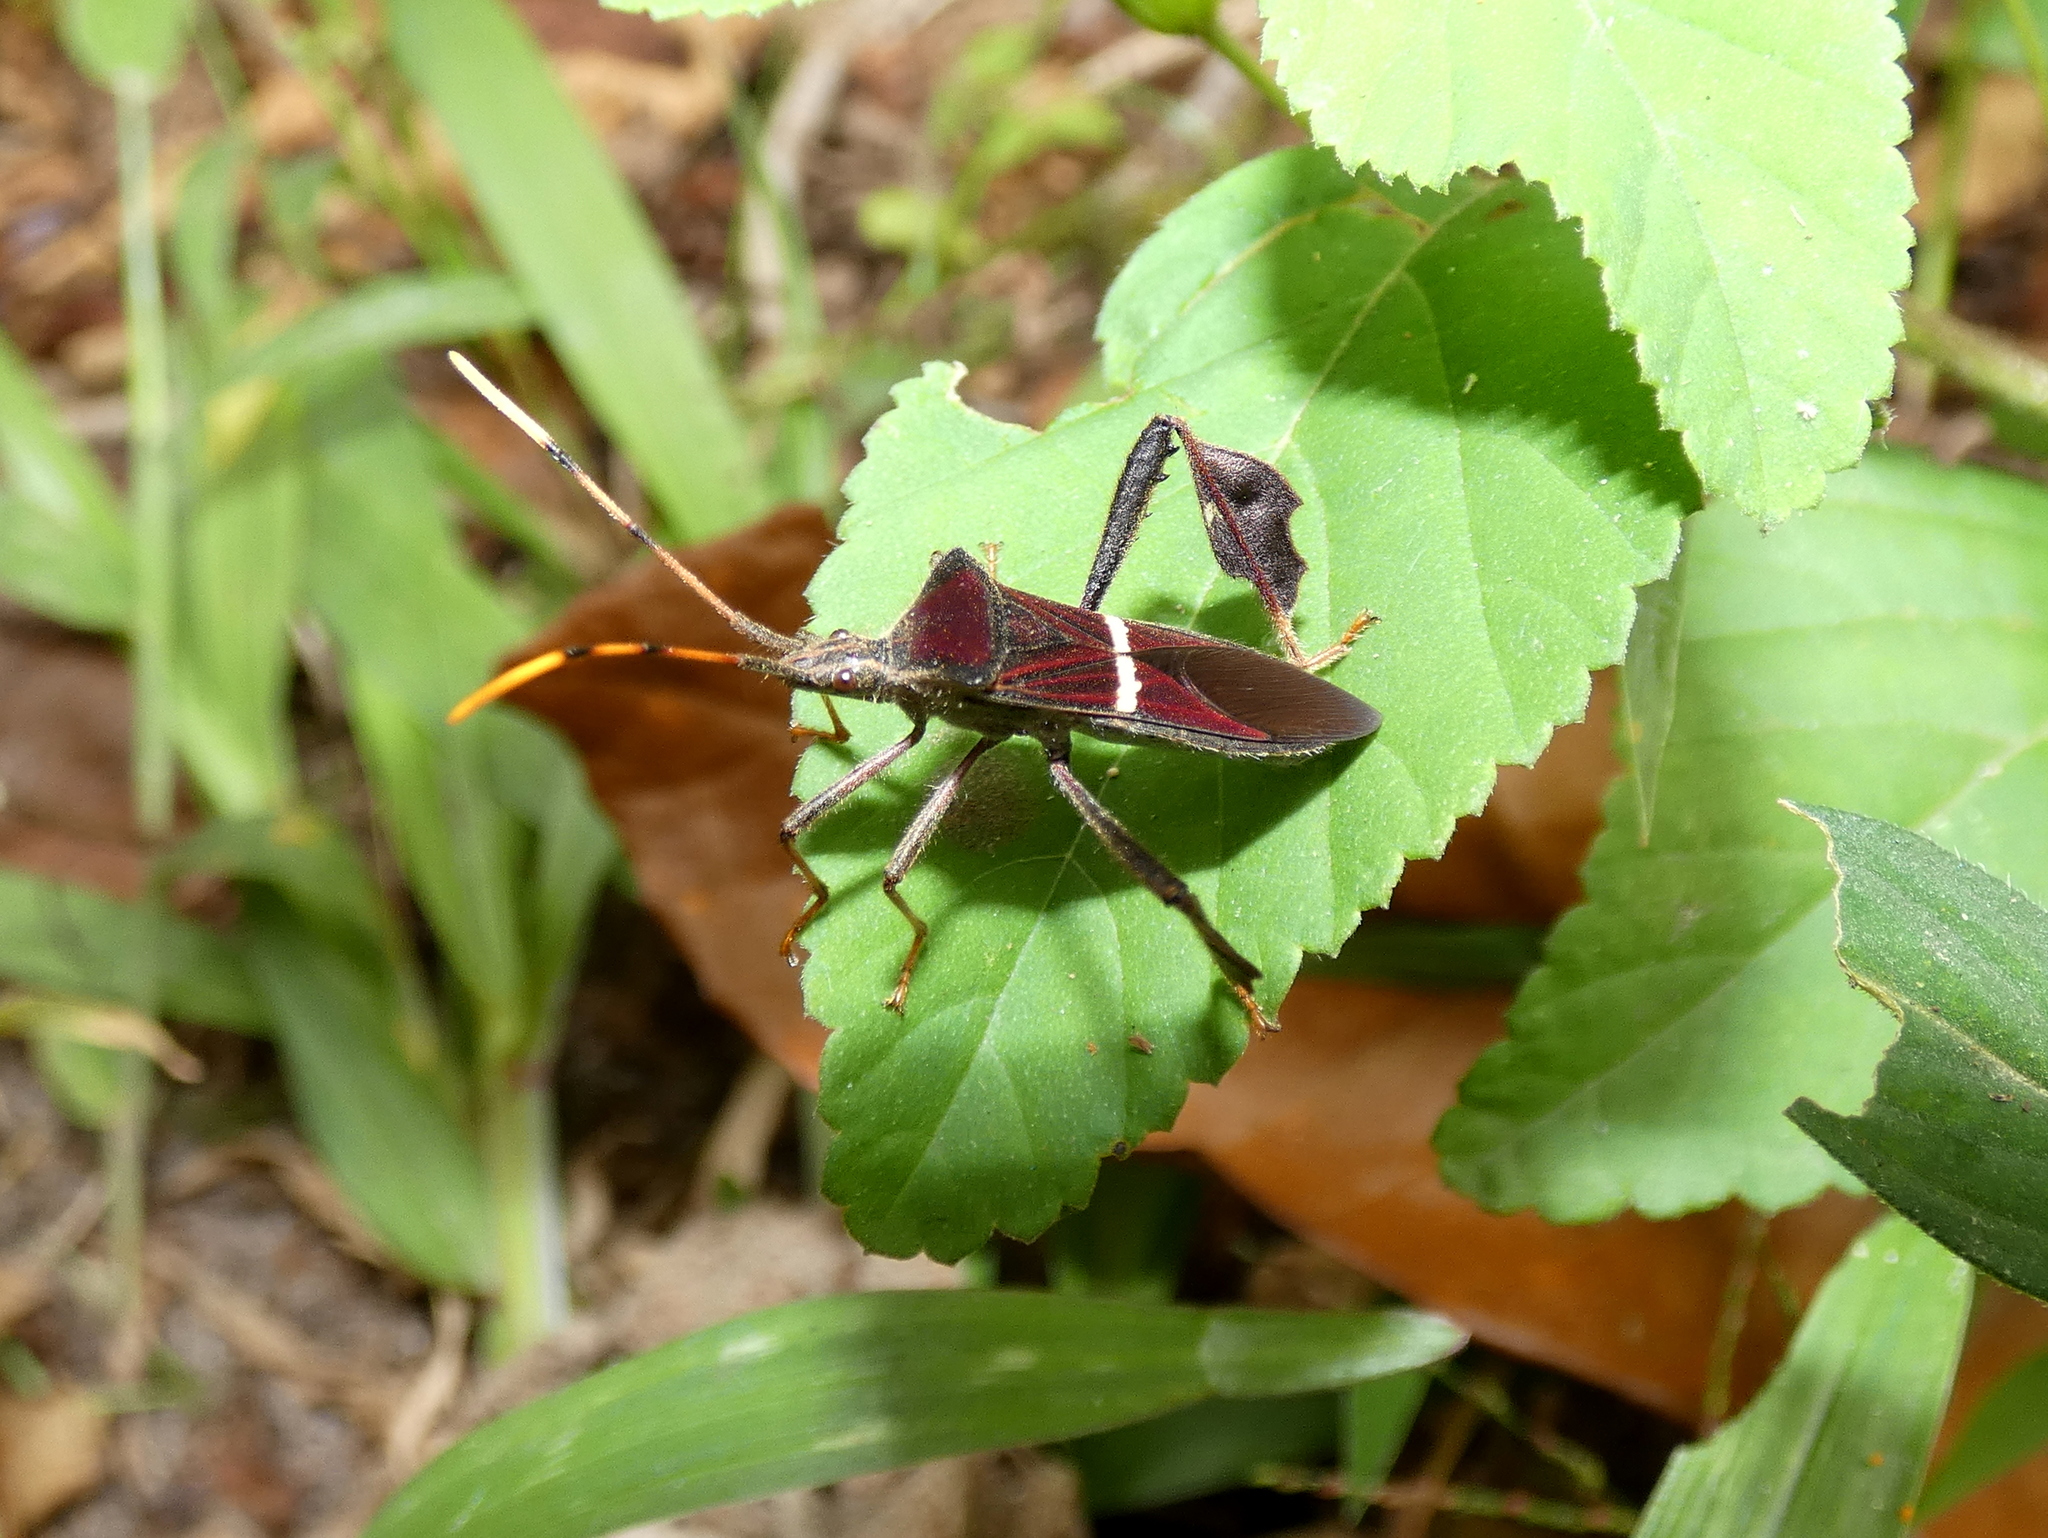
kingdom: Animalia
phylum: Arthropoda
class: Insecta
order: Hemiptera
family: Coreidae
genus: Leptoglossus
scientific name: Leptoglossus cartagoensis
